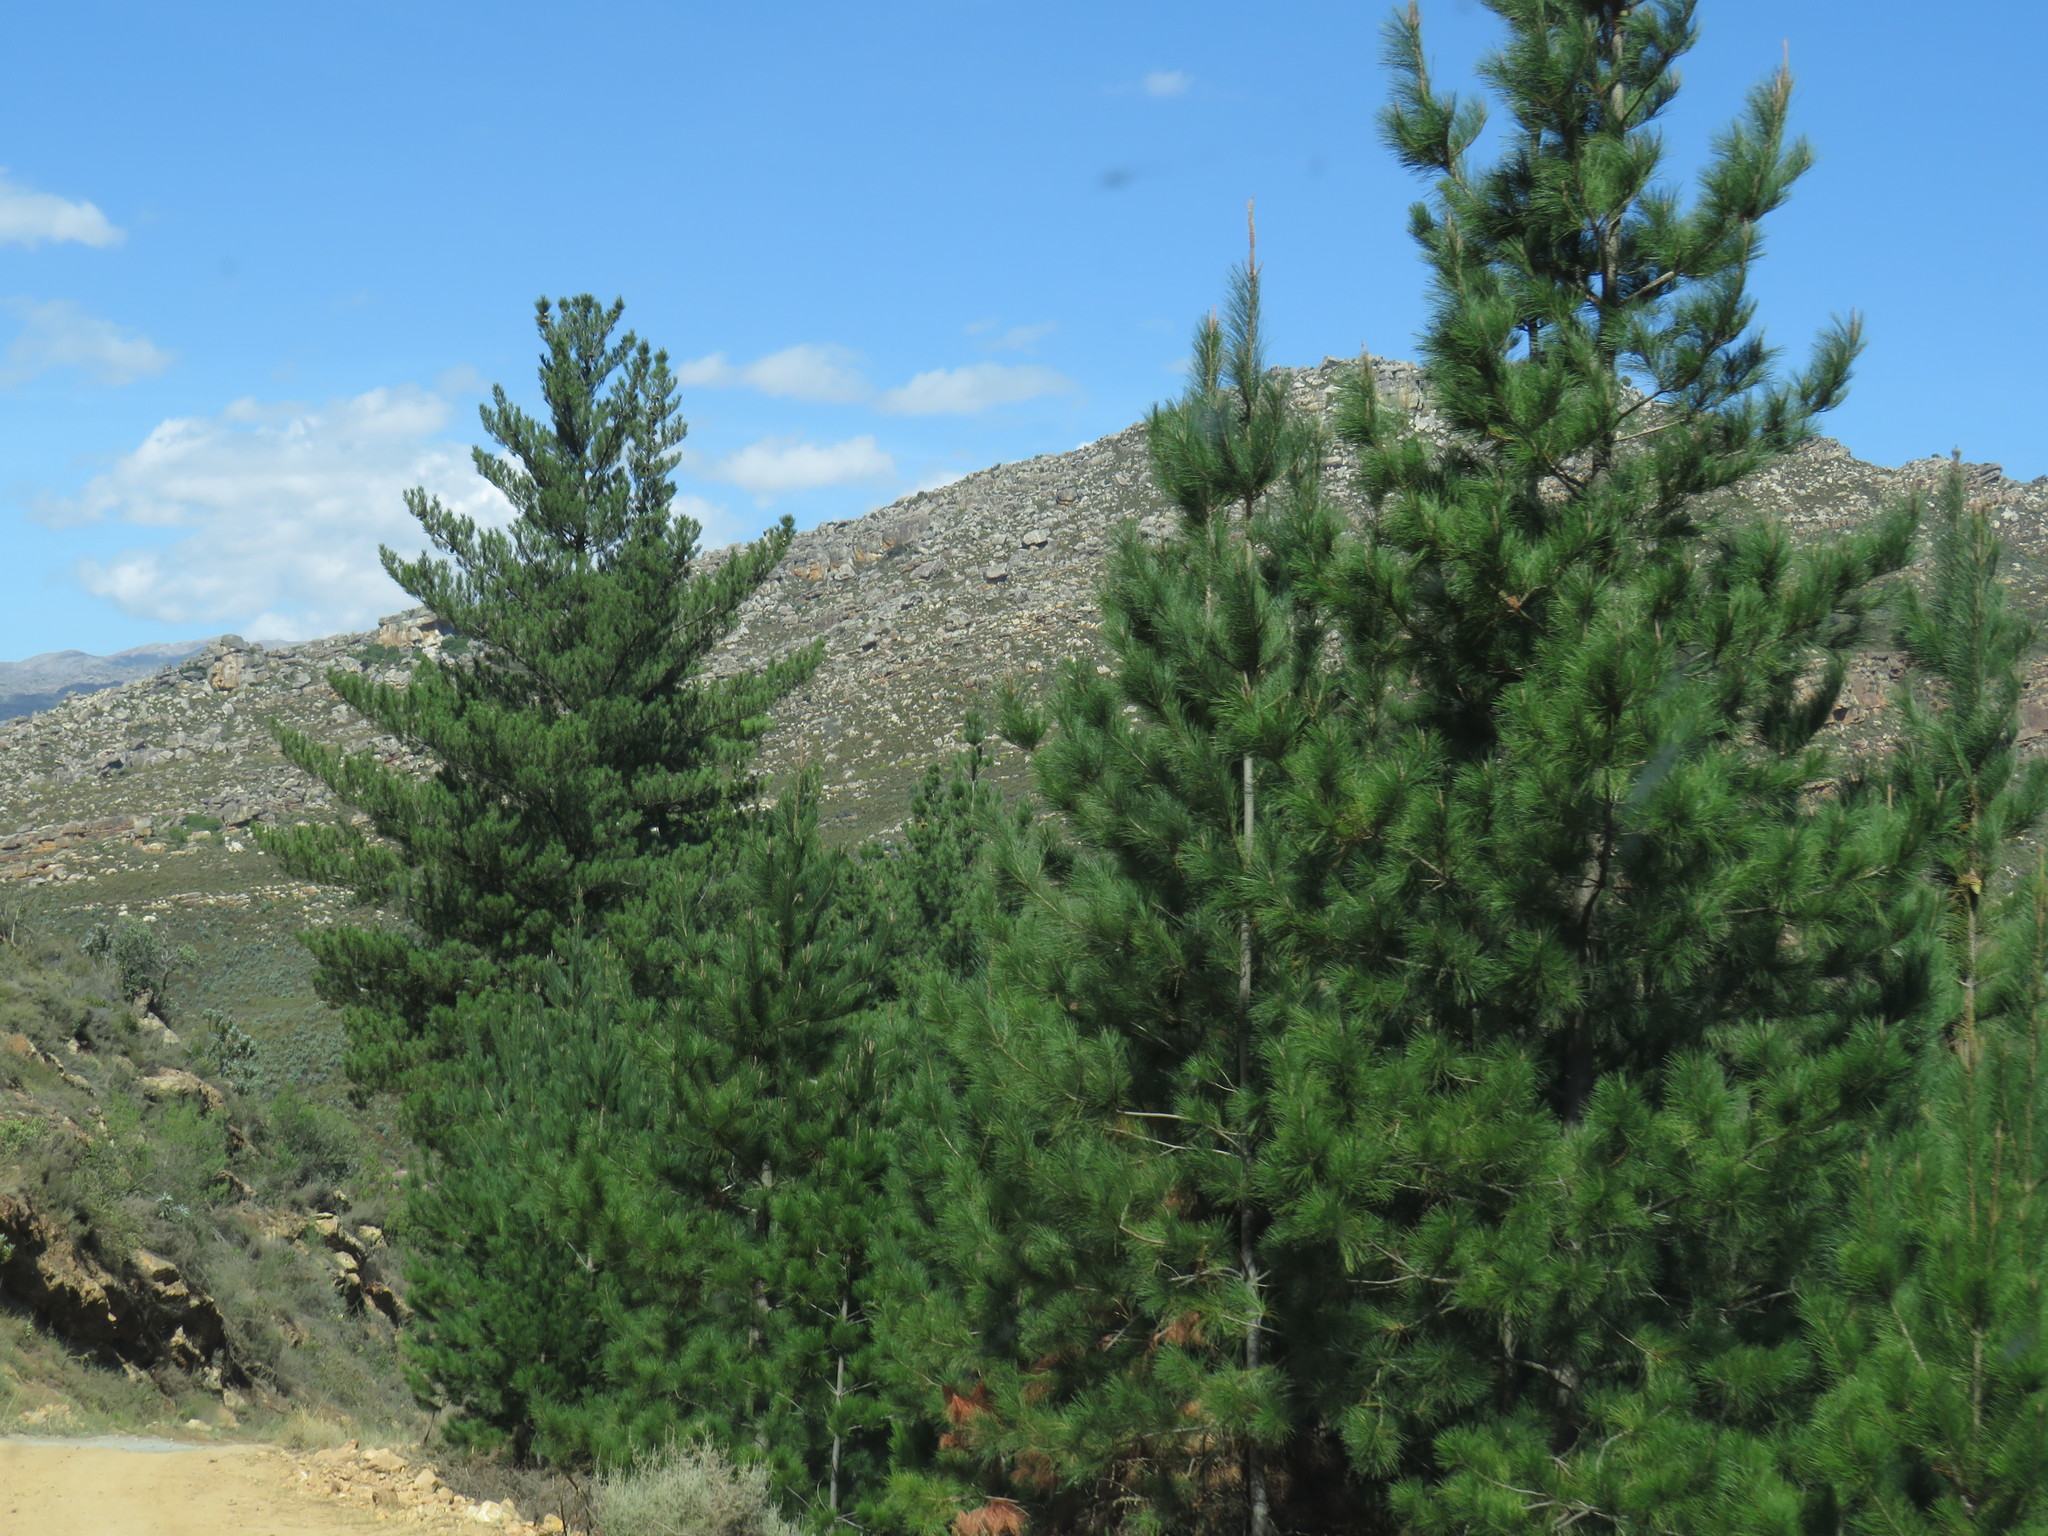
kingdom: Plantae
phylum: Tracheophyta
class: Pinopsida
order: Pinales
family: Pinaceae
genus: Pinus
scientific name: Pinus radiata
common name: Monterey pine
